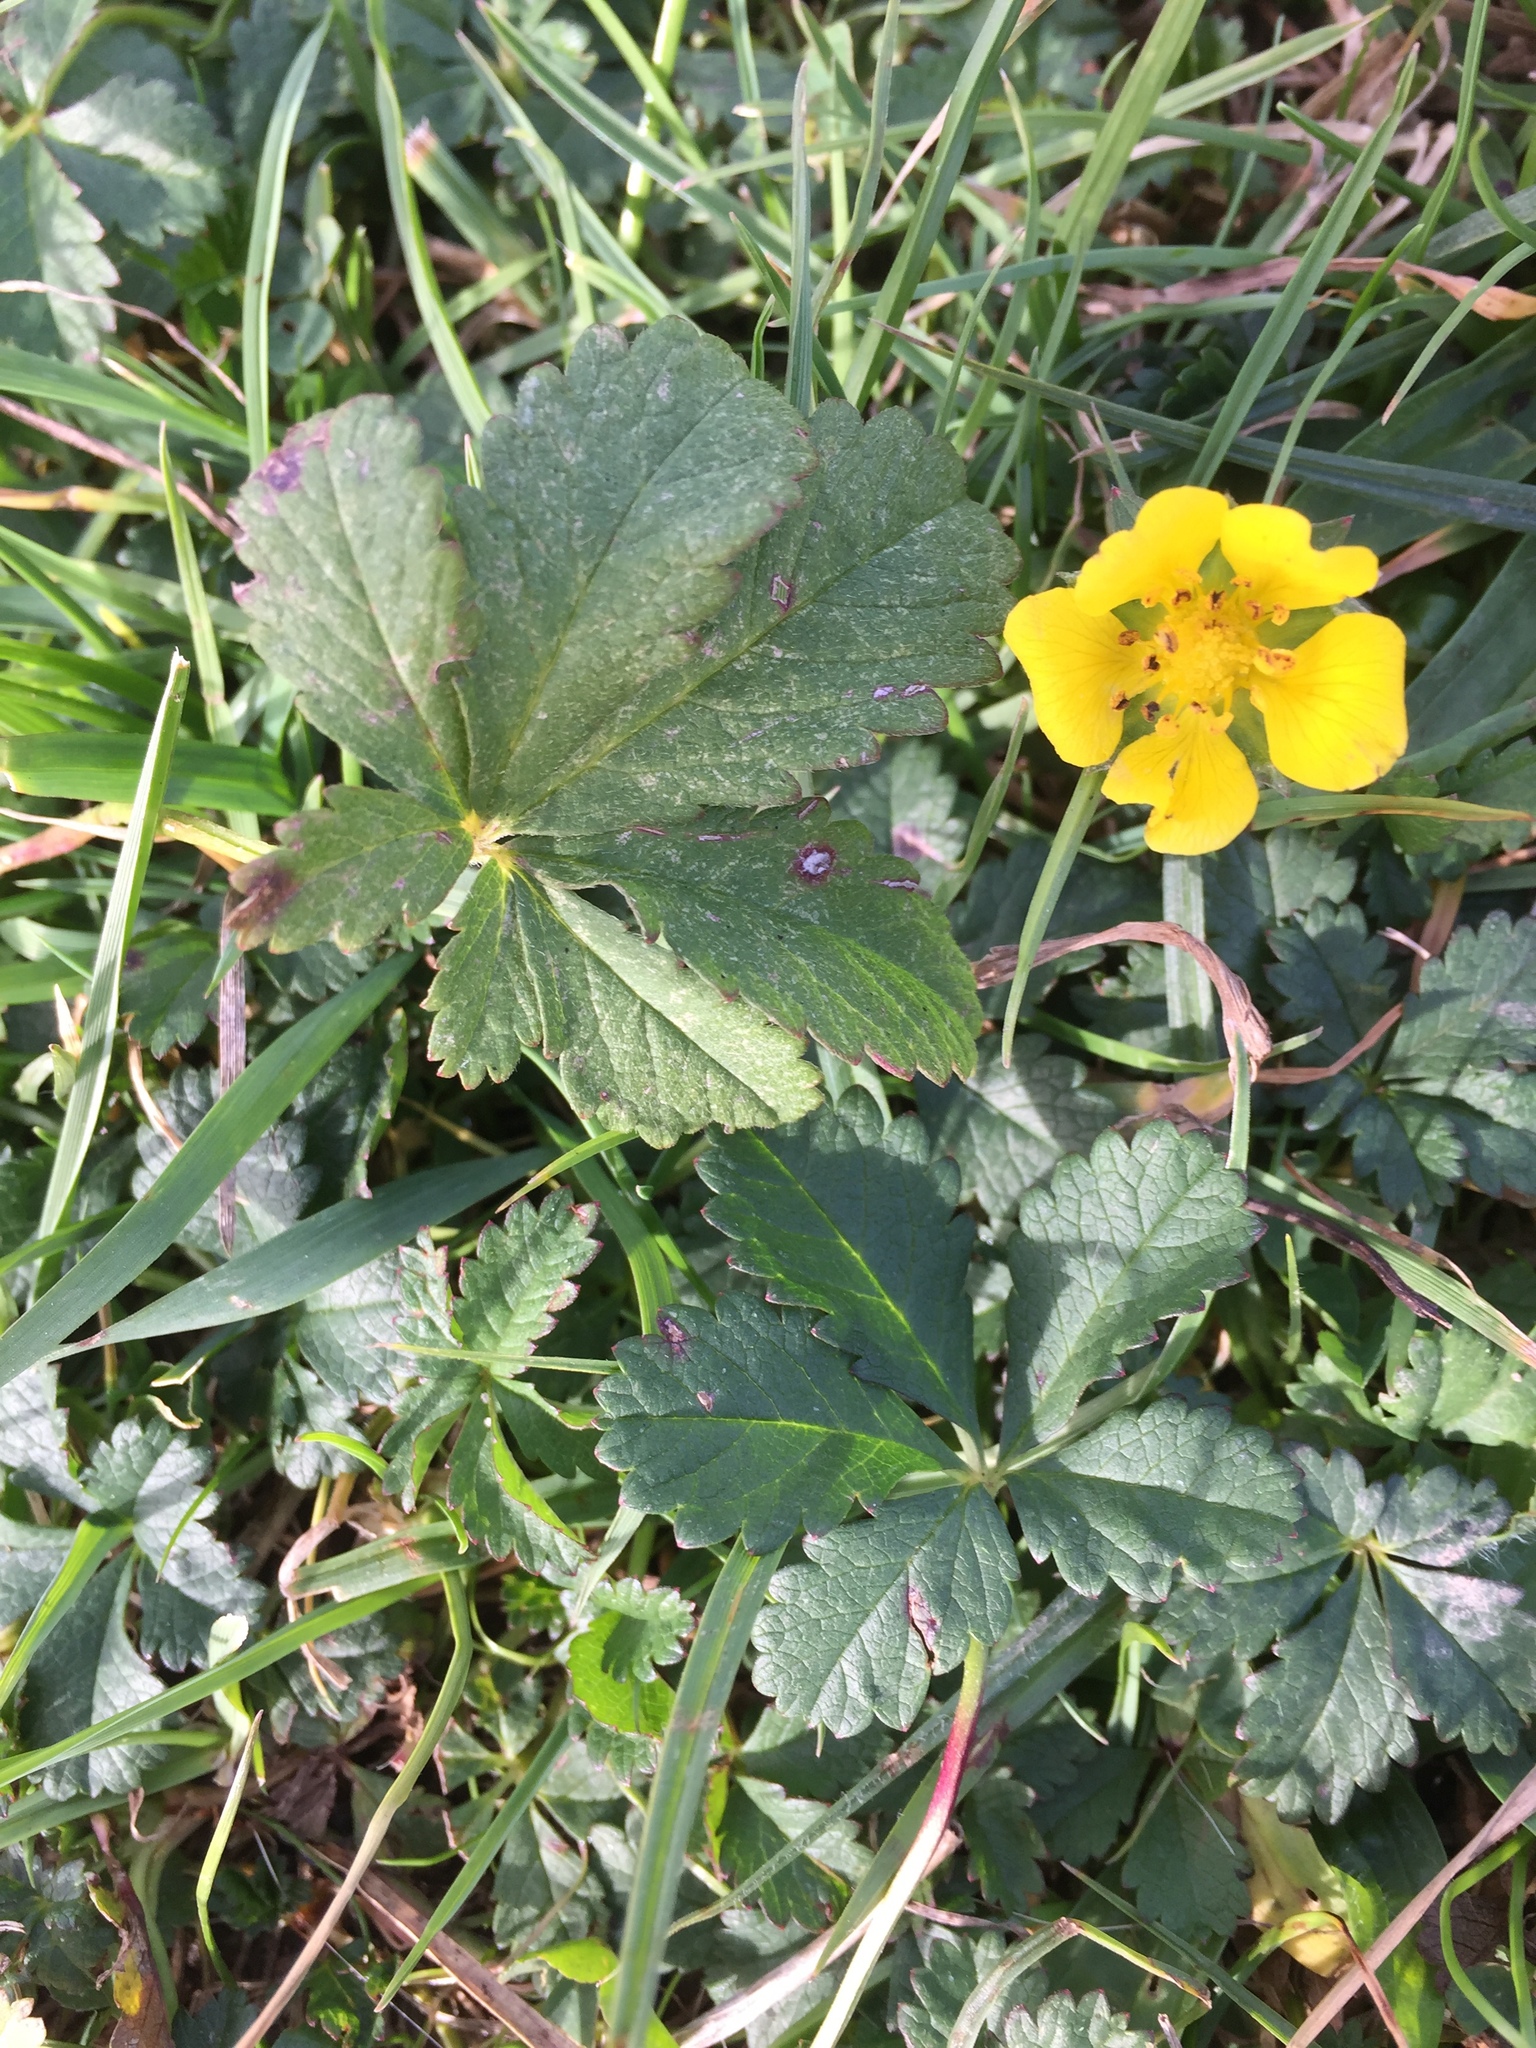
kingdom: Plantae
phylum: Tracheophyta
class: Magnoliopsida
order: Rosales
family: Rosaceae
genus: Potentilla
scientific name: Potentilla reptans
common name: Creeping cinquefoil
